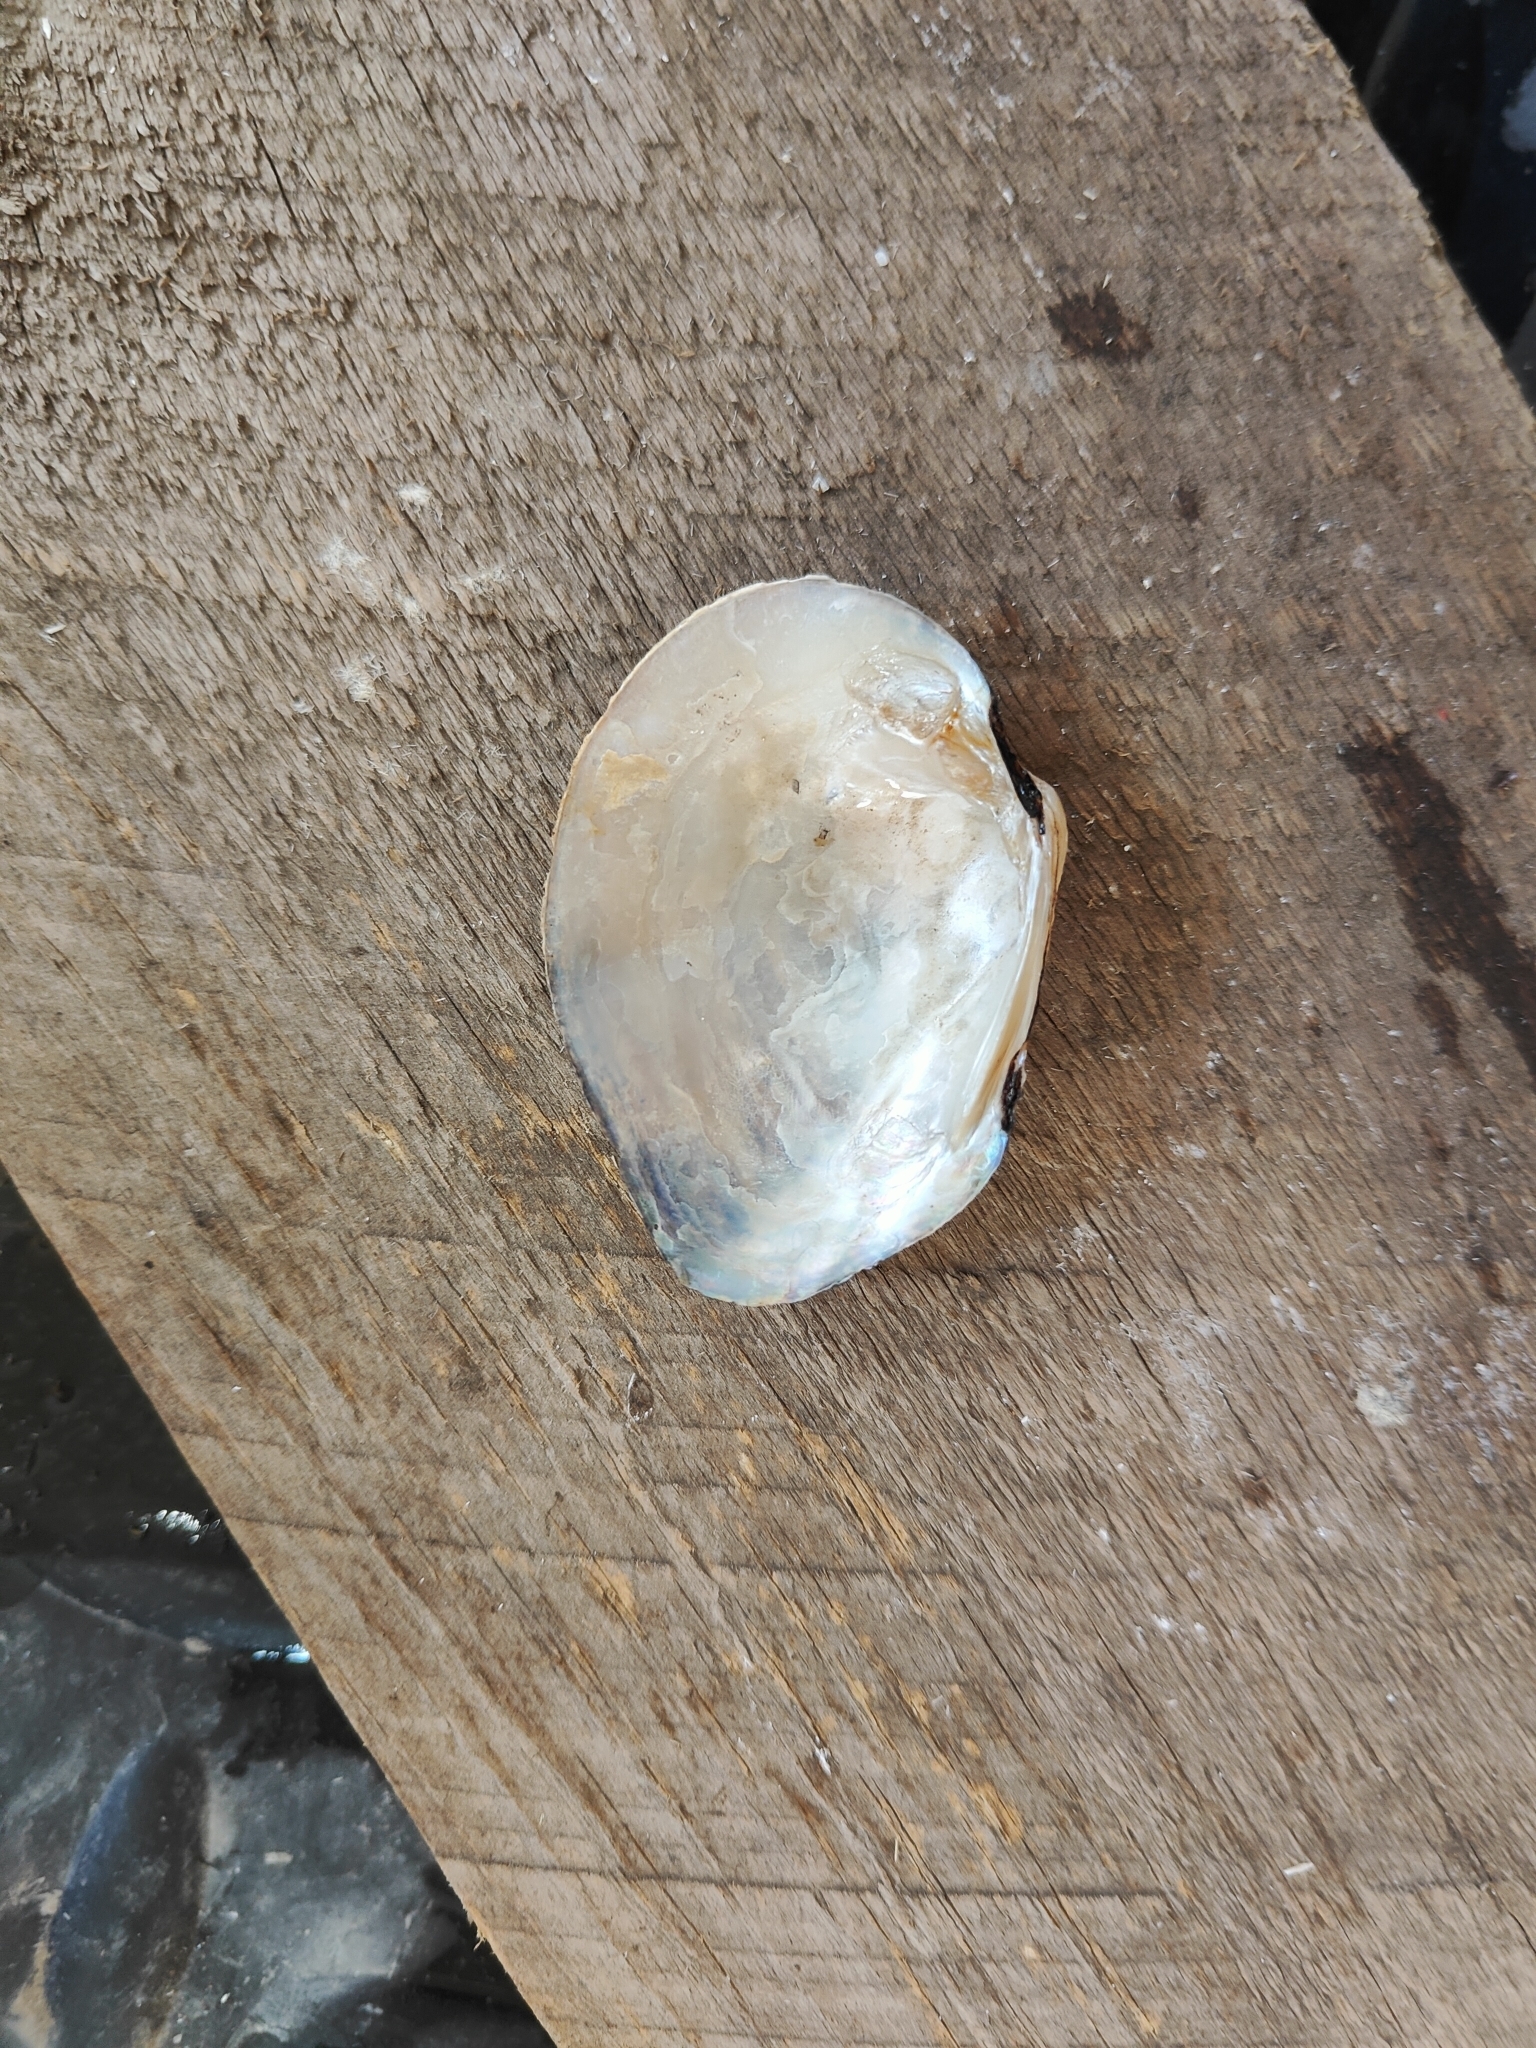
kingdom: Animalia
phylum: Mollusca
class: Bivalvia
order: Unionida
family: Unionidae
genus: Fusconaia
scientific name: Fusconaia flava
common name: Wabash pigtoe
